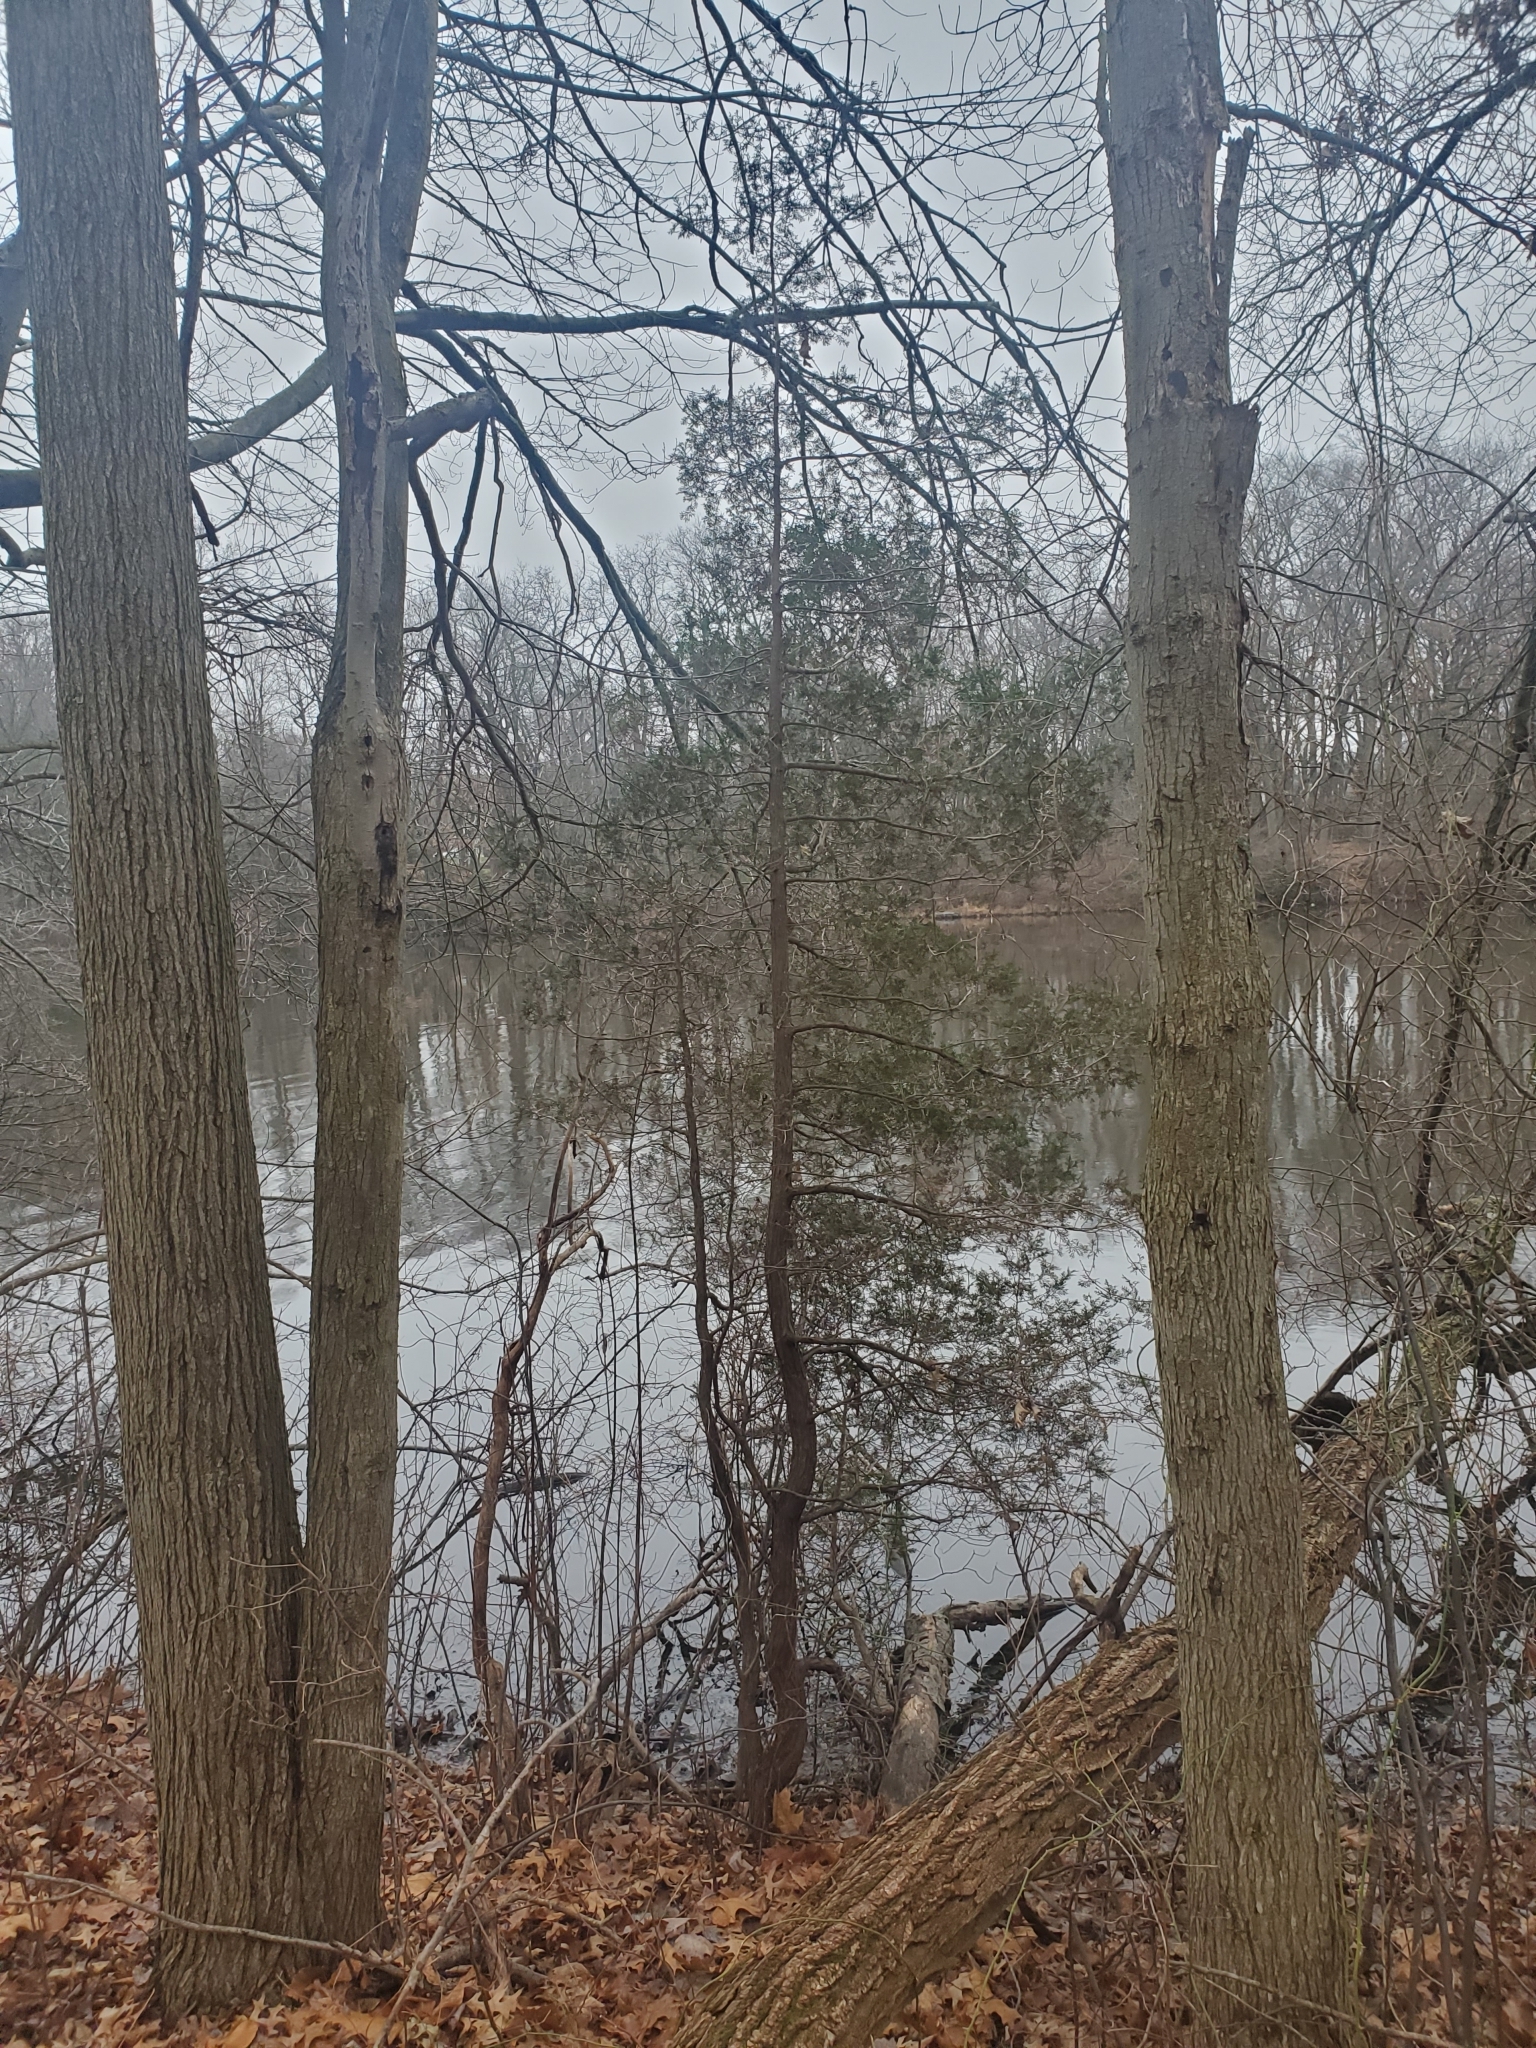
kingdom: Plantae
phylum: Tracheophyta
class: Pinopsida
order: Pinales
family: Cupressaceae
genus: Chamaecyparis
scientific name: Chamaecyparis thyoides
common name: Atlantic white cedar
